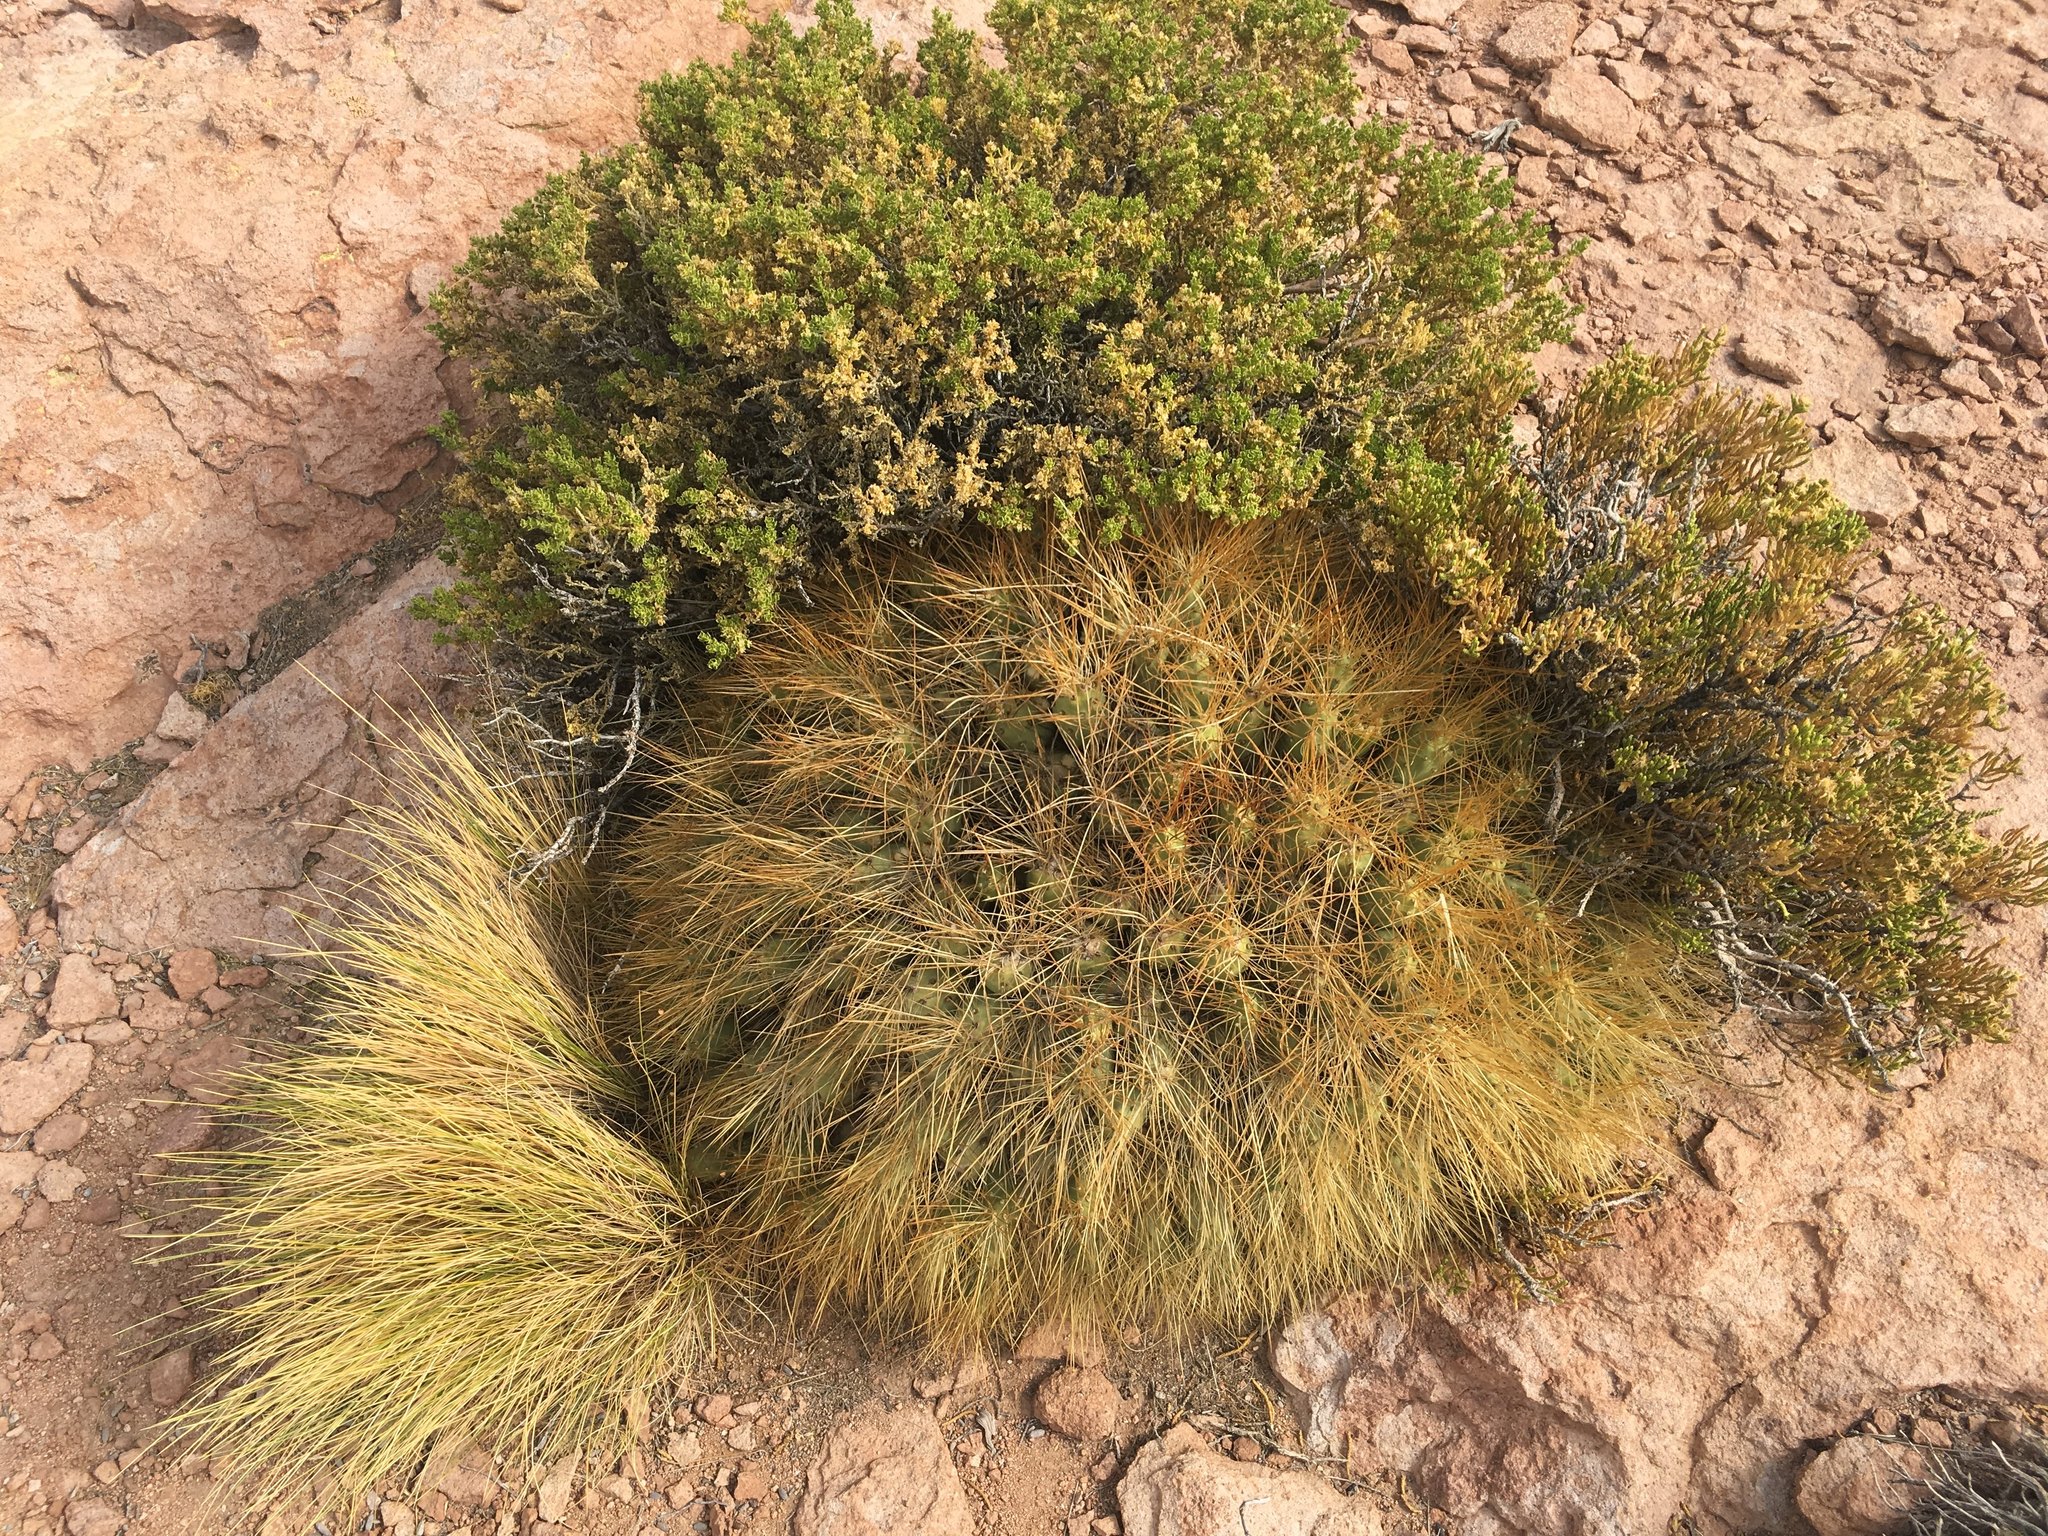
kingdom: Plantae
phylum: Tracheophyta
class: Magnoliopsida
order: Caryophyllales
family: Cactaceae
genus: Cumulopuntia
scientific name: Cumulopuntia glomerata
